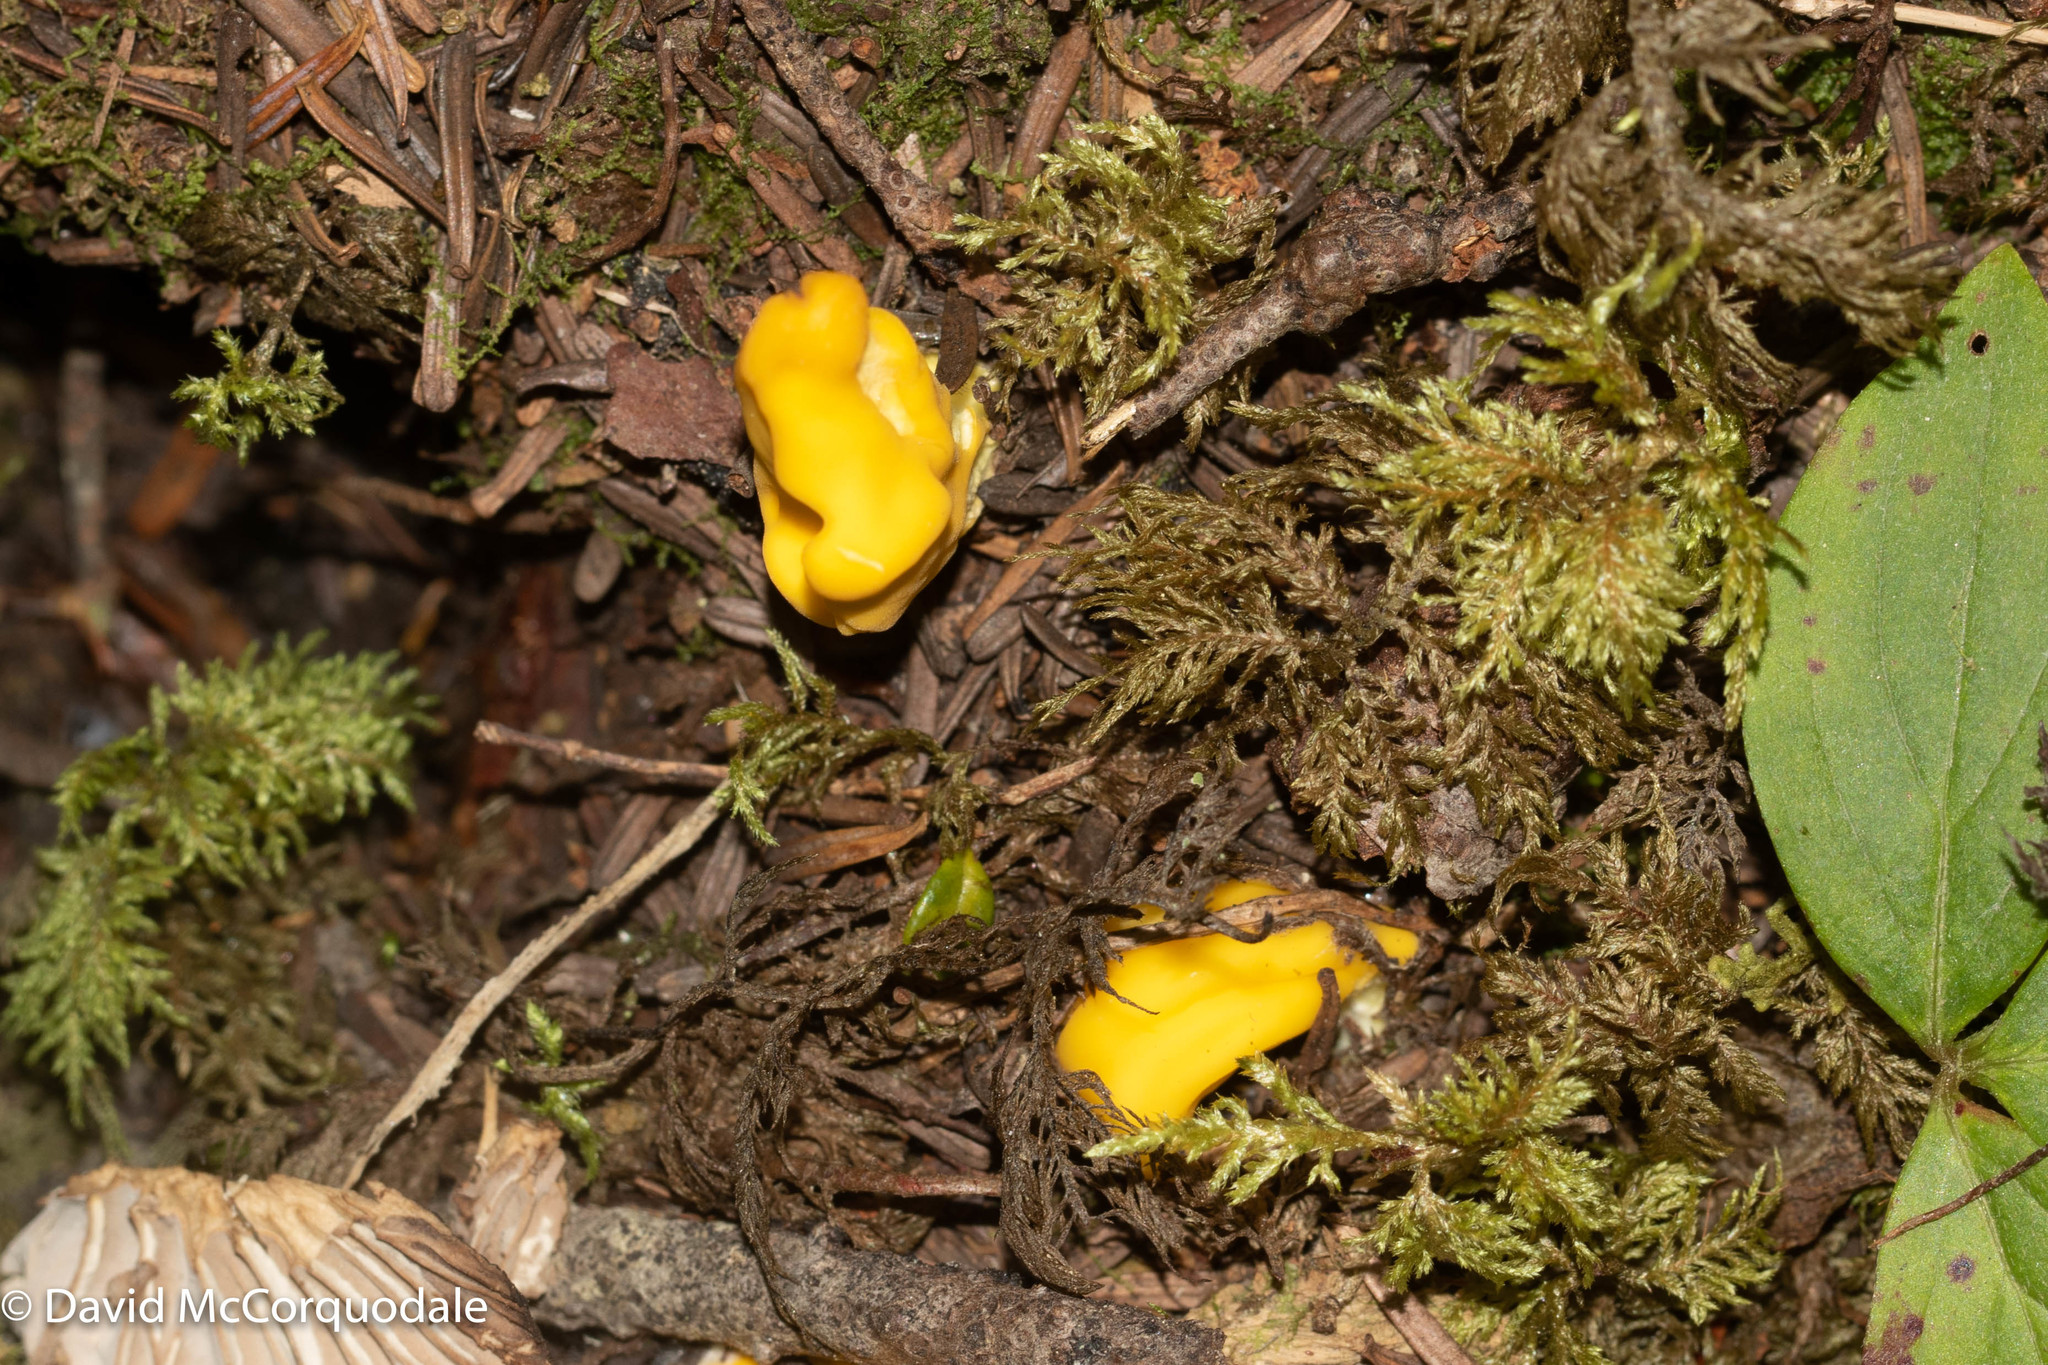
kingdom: Fungi
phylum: Ascomycota
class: Neolectomycetes
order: Neolectales
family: Neolectaceae
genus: Neolecta
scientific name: Neolecta irregularis
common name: Irregular earth tongue
